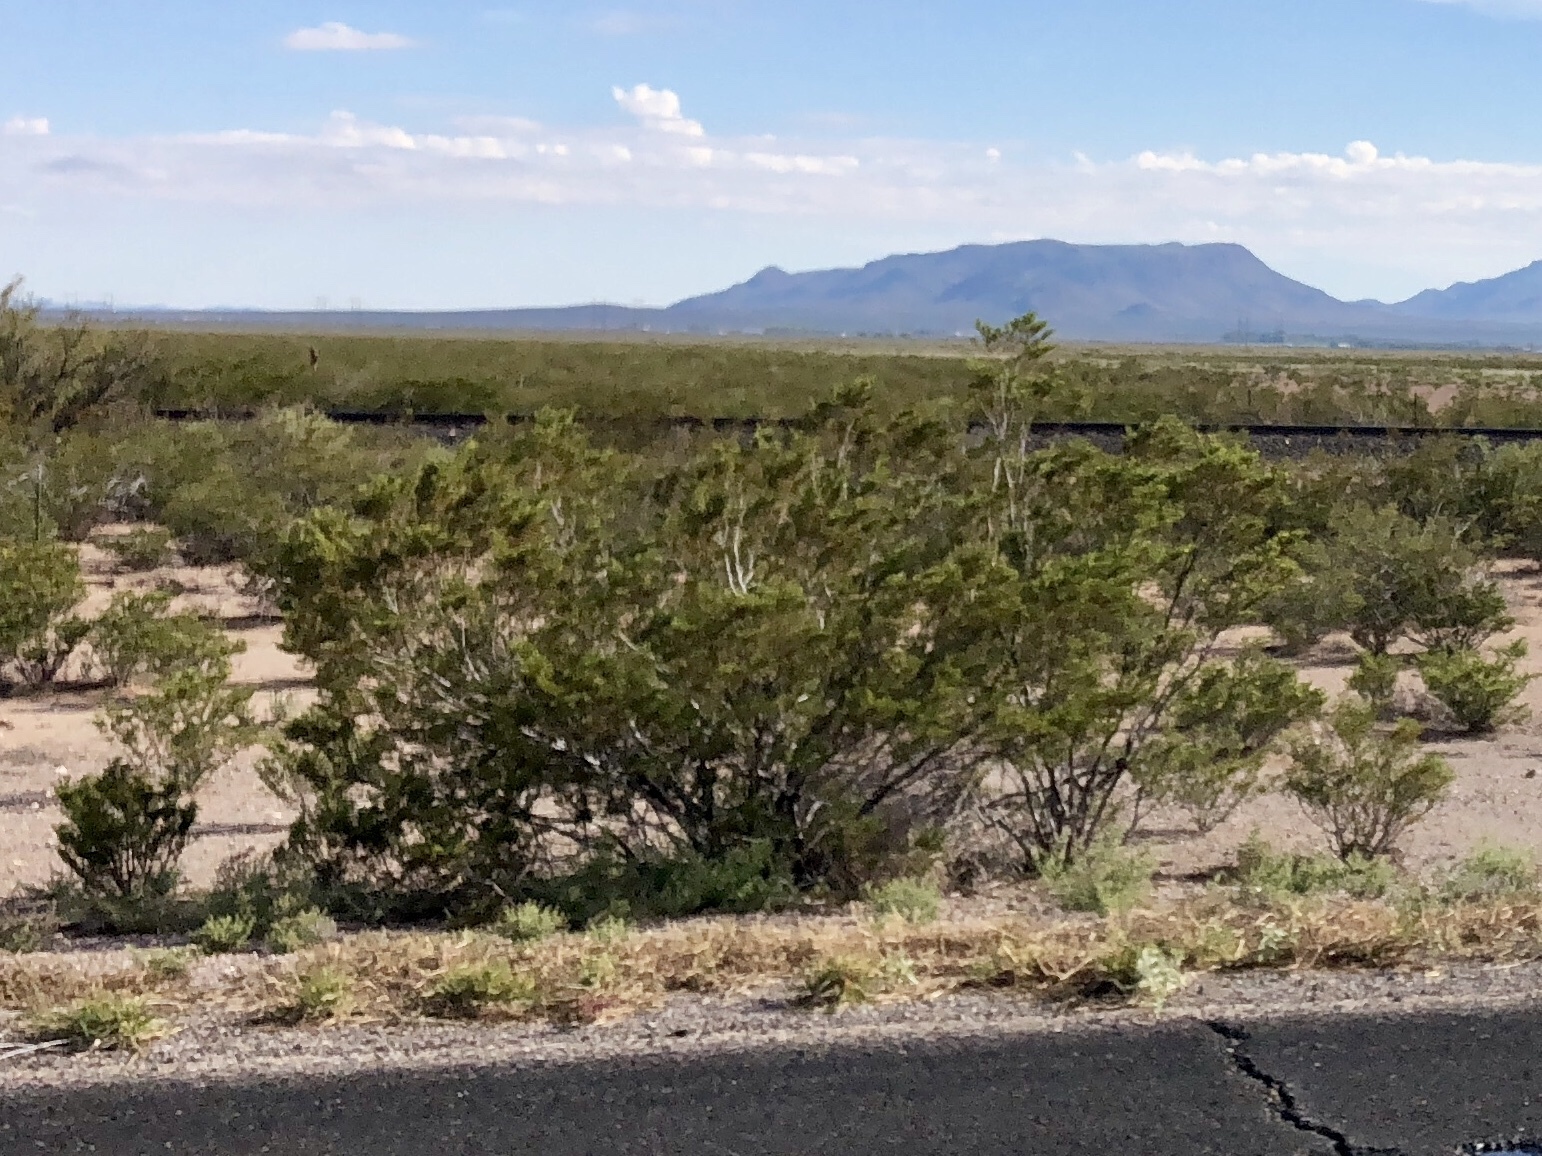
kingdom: Plantae
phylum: Tracheophyta
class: Magnoliopsida
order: Zygophyllales
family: Zygophyllaceae
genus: Larrea
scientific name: Larrea tridentata
